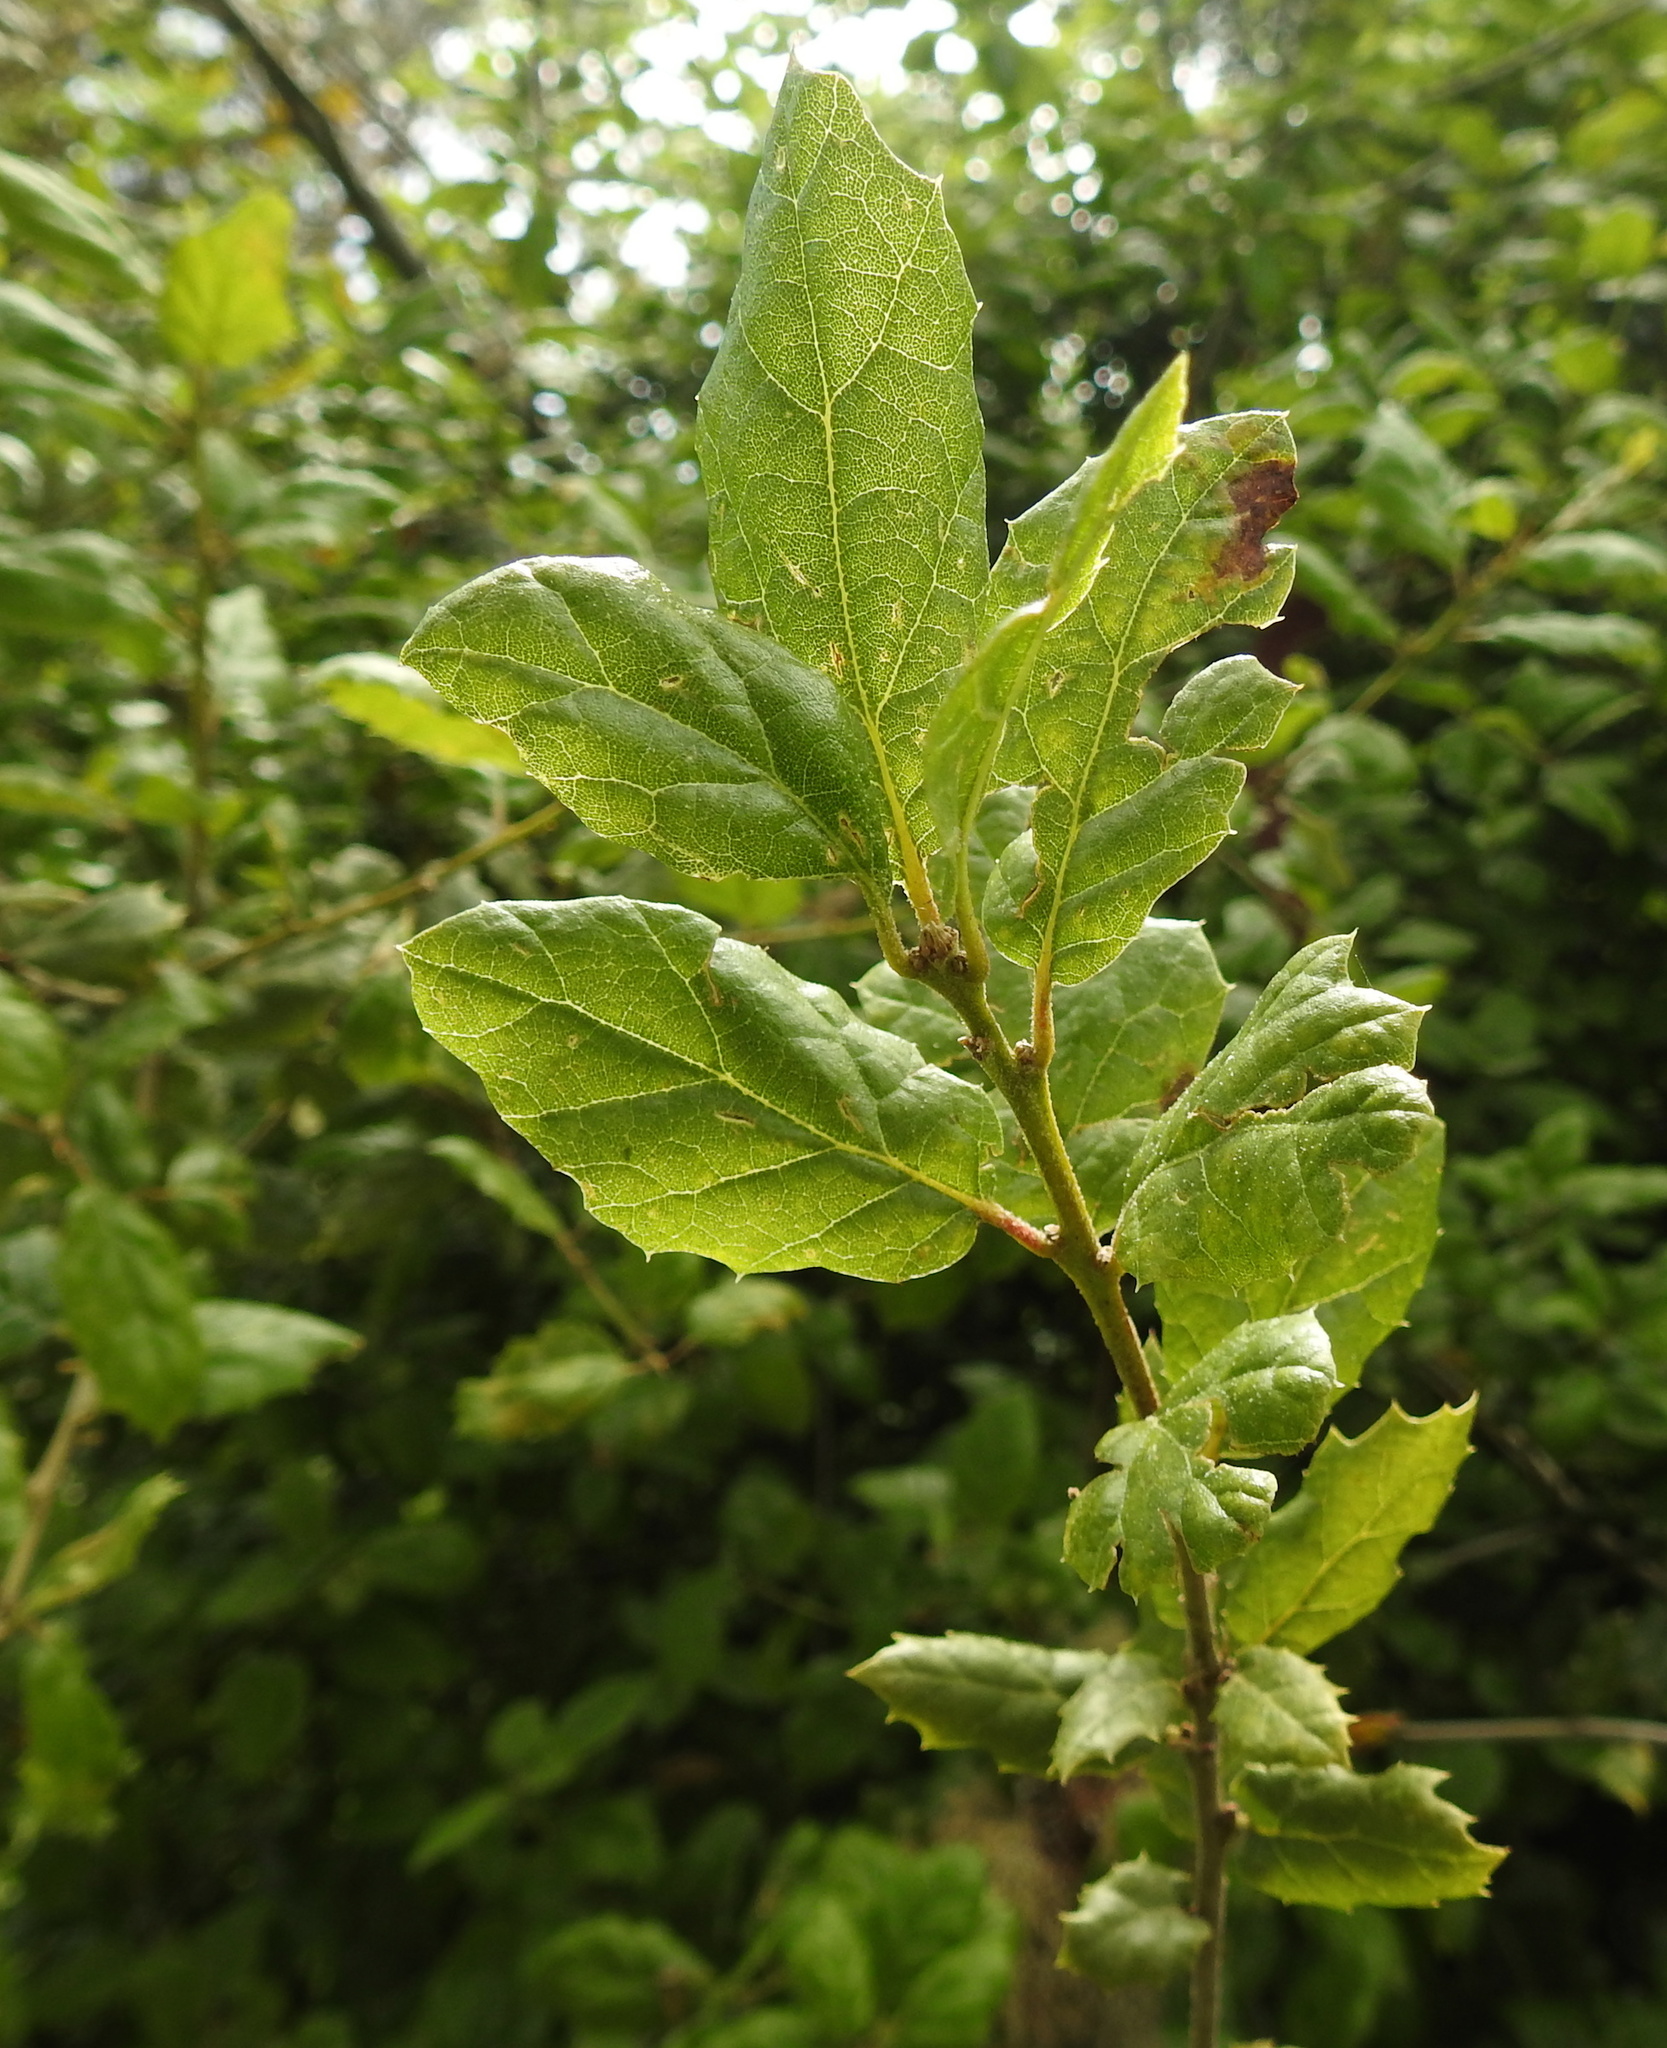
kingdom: Plantae
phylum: Tracheophyta
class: Magnoliopsida
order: Fagales
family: Fagaceae
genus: Quercus
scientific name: Quercus agrifolia
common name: California live oak
